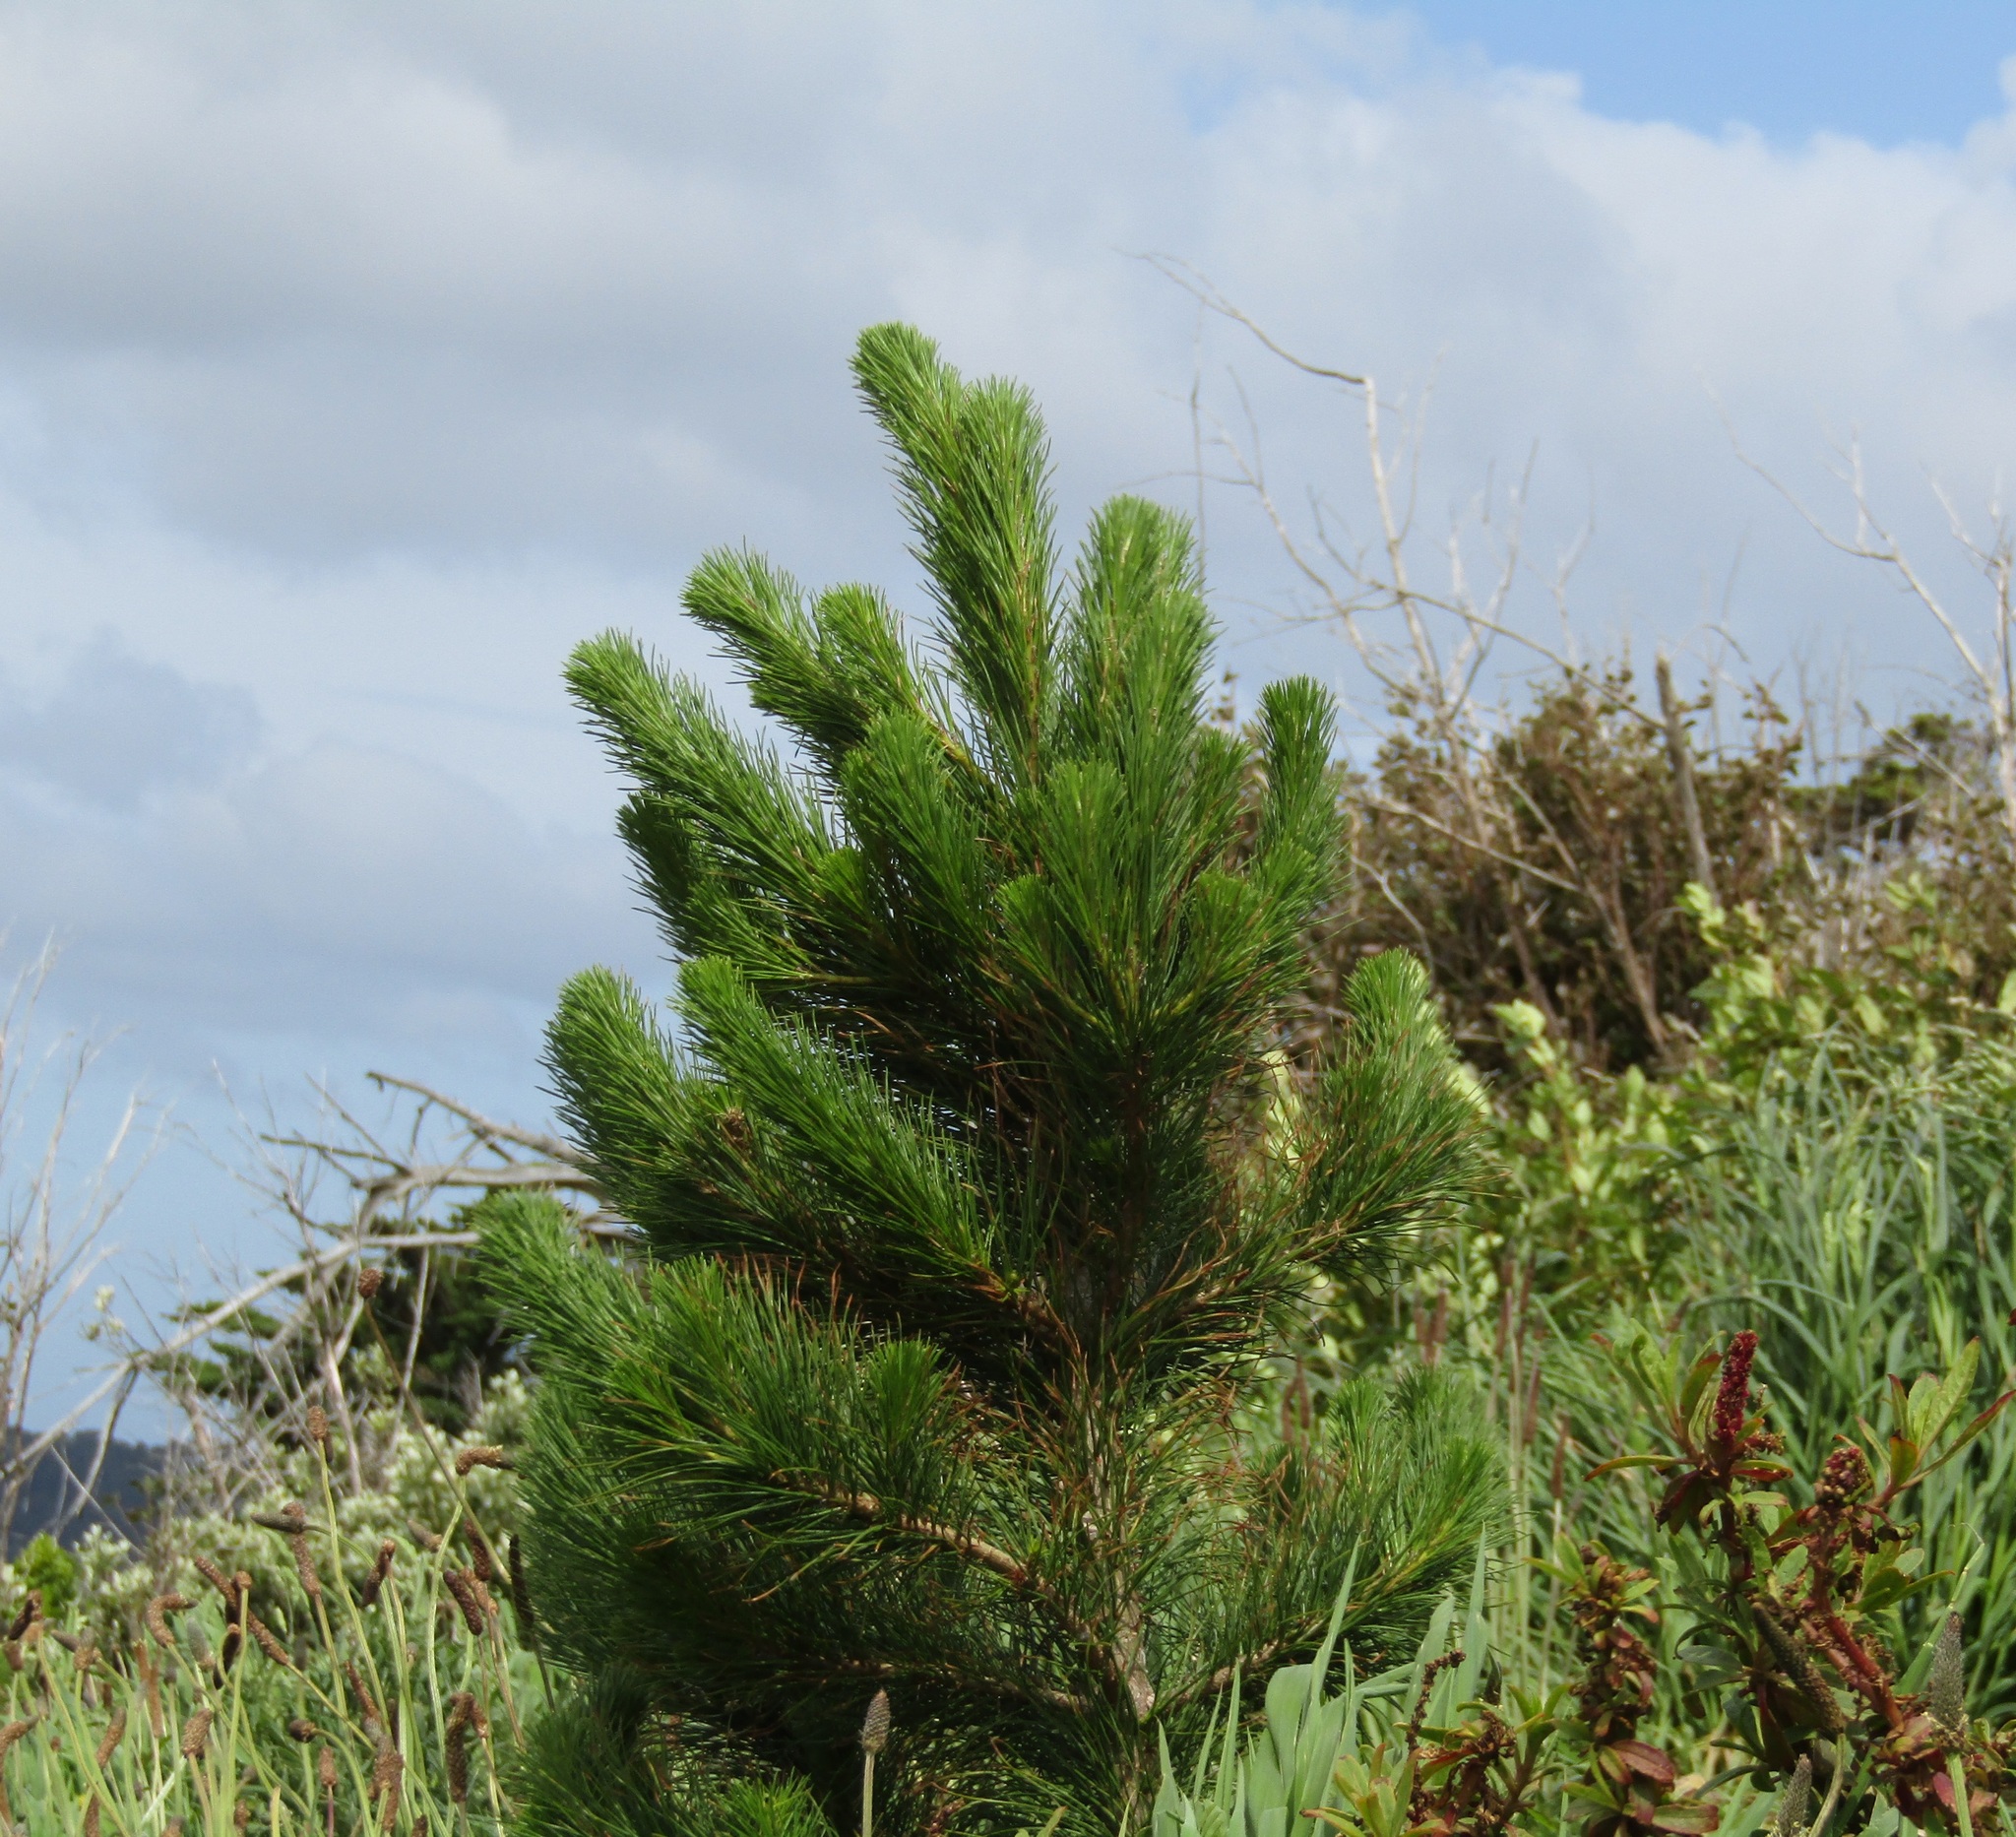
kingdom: Plantae
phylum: Tracheophyta
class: Pinopsida
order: Pinales
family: Pinaceae
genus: Pinus
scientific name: Pinus radiata
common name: Monterey pine
